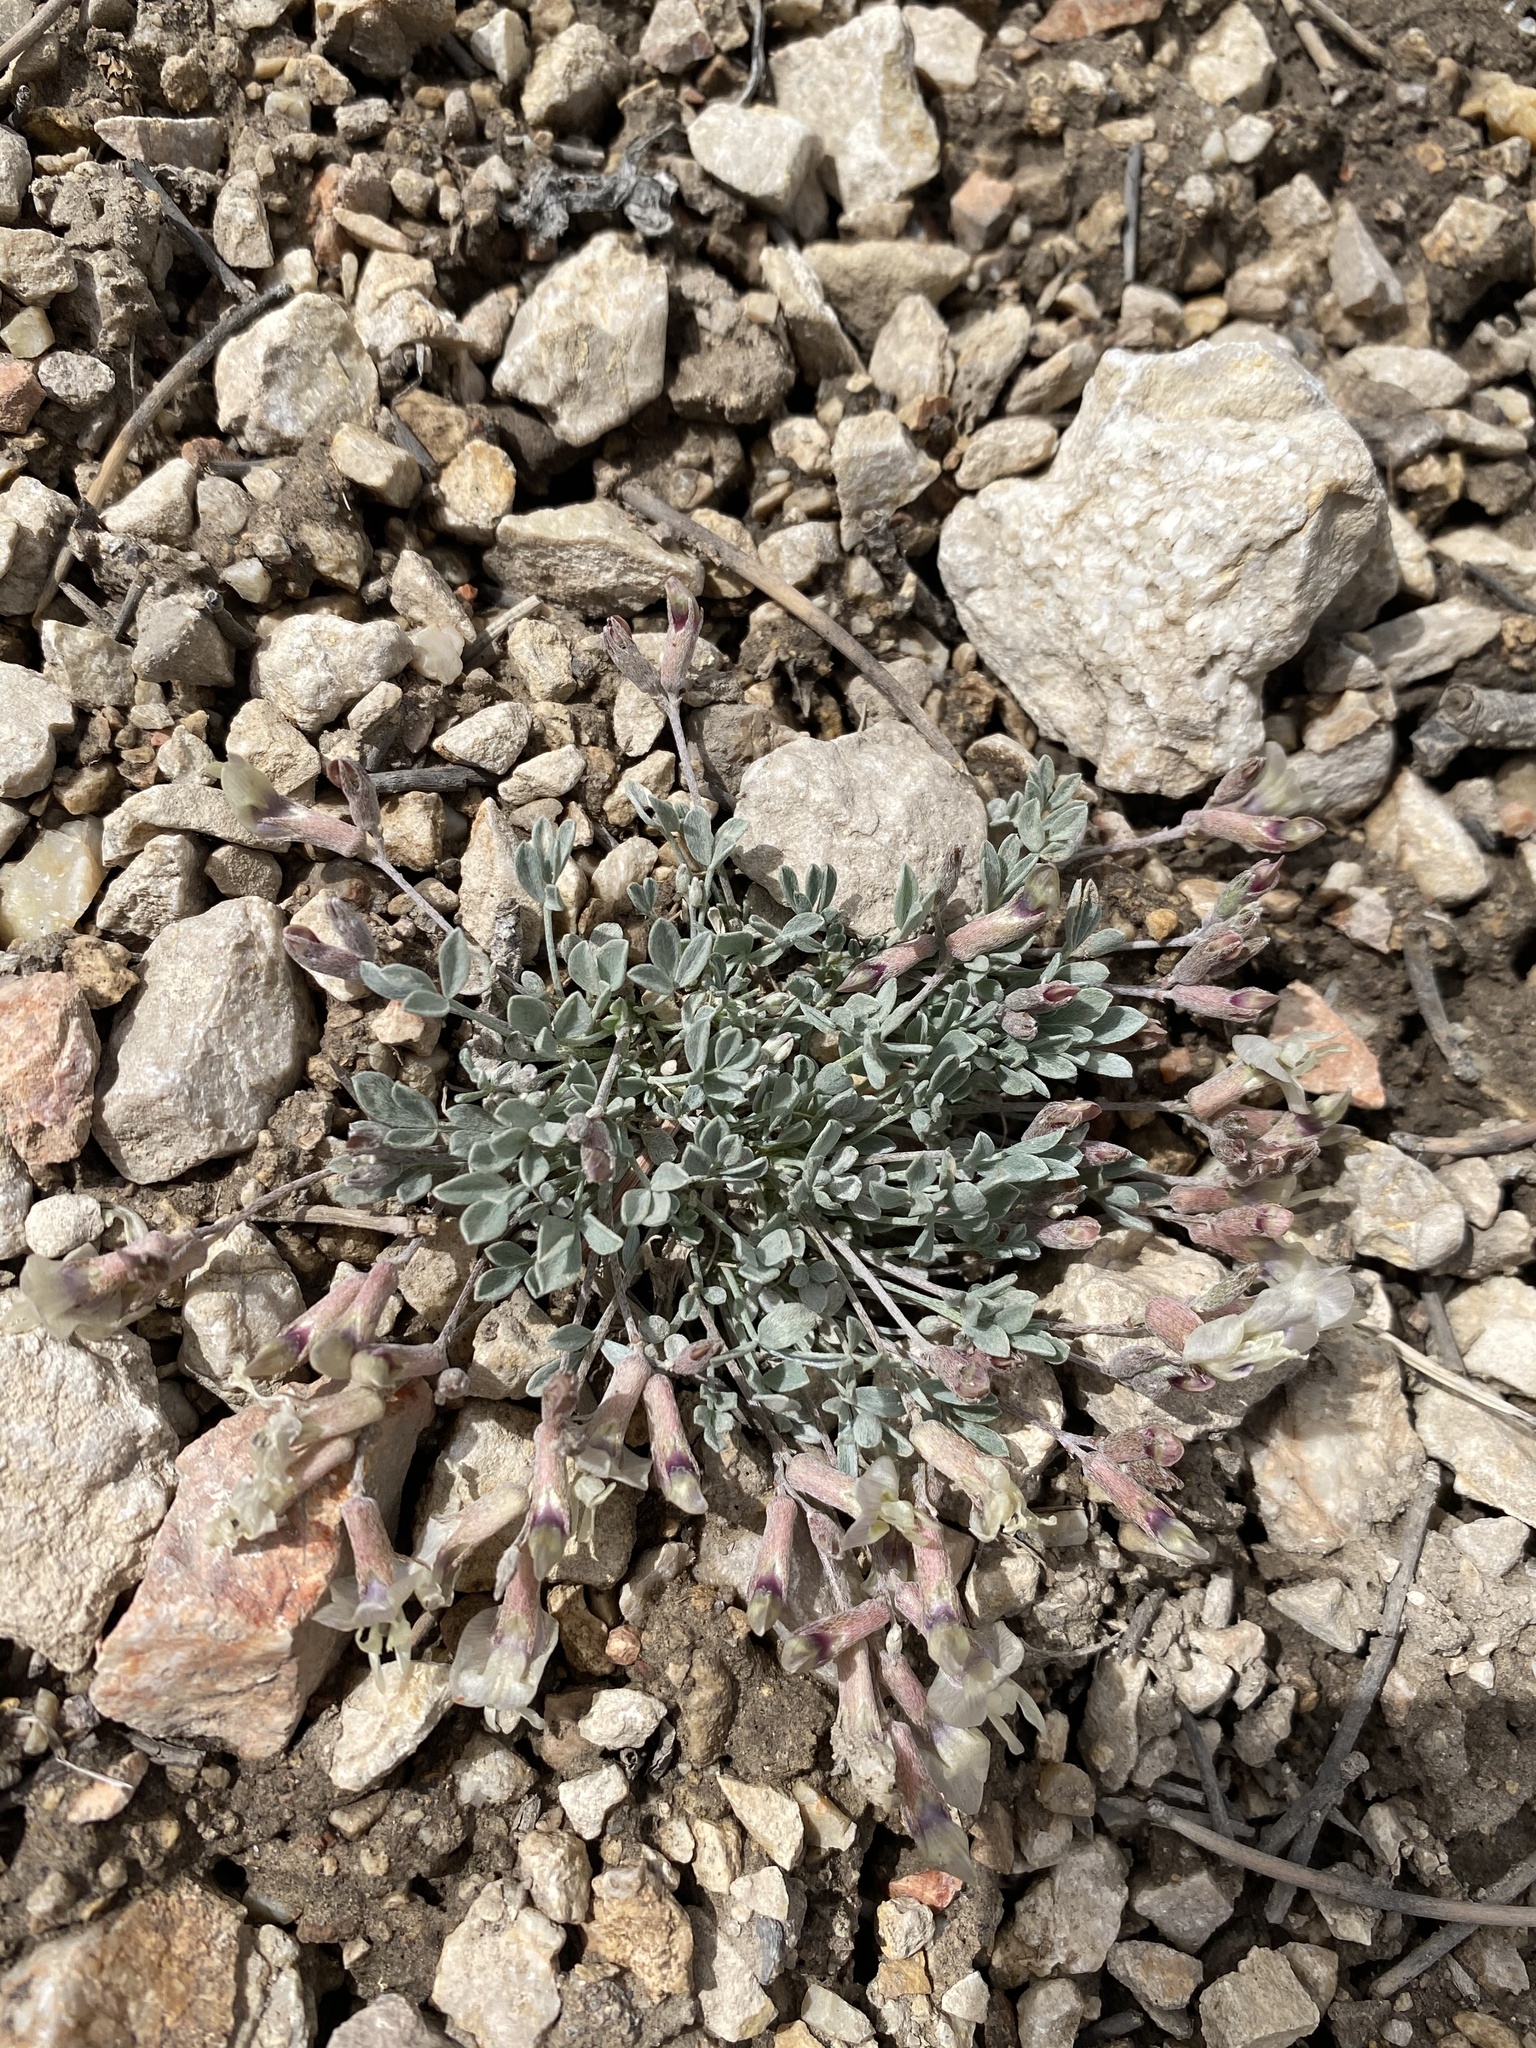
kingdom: Plantae
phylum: Tracheophyta
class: Magnoliopsida
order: Fabales
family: Fabaceae
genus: Astragalus
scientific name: Astragalus calycosus
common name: King's milkvetch
